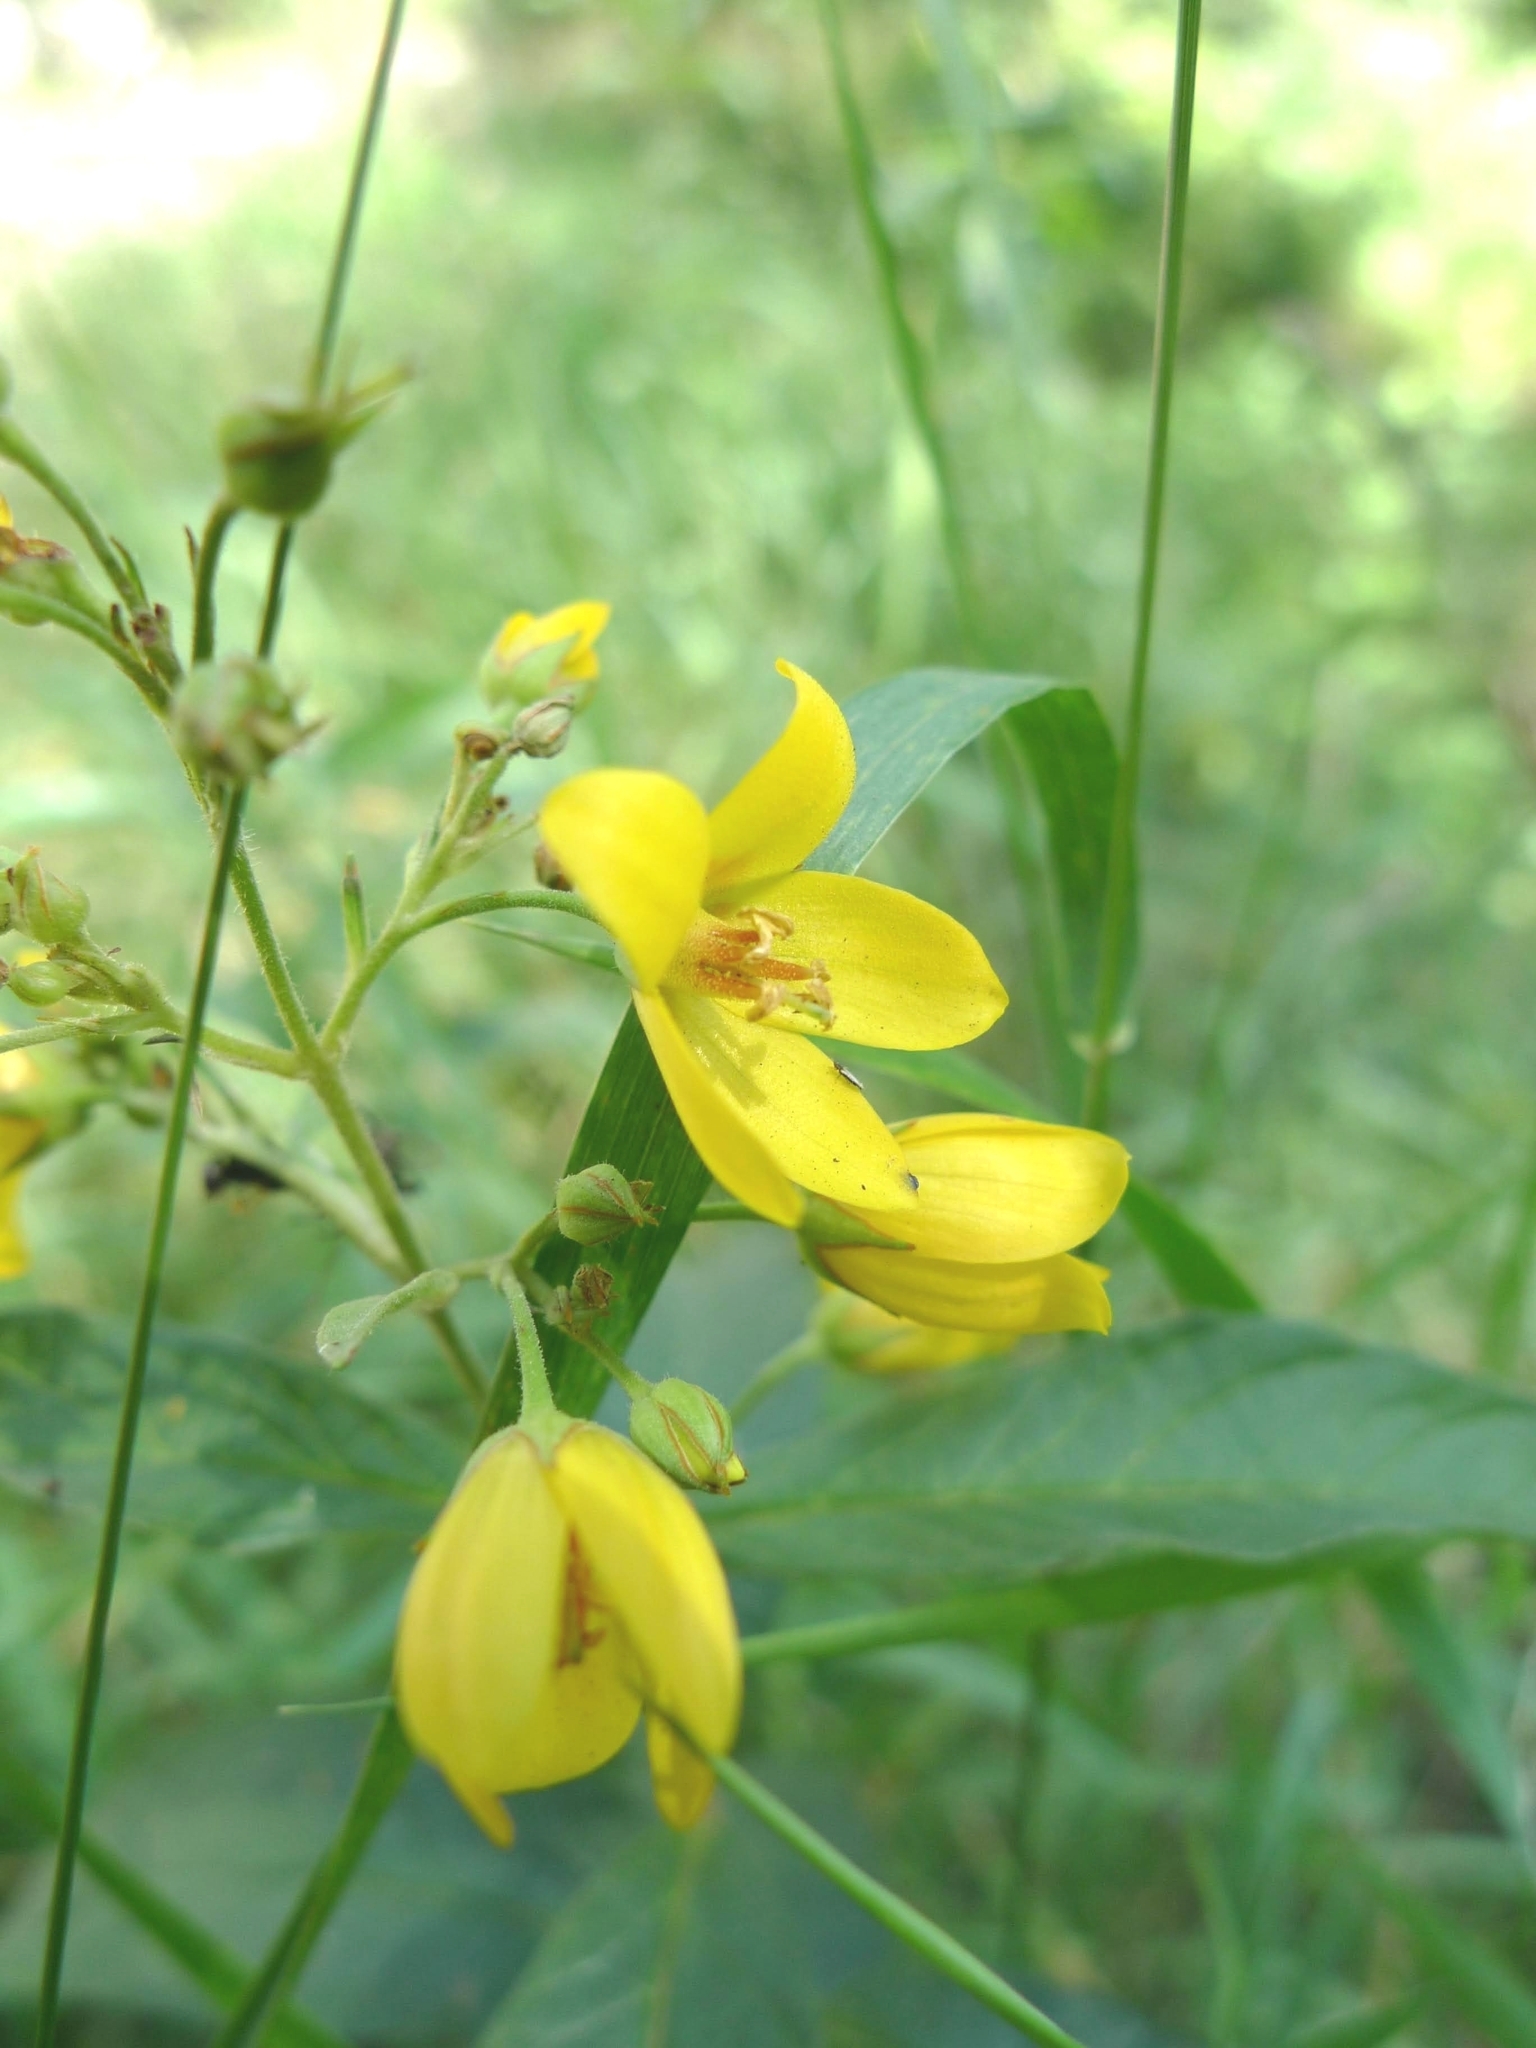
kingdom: Plantae
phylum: Tracheophyta
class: Magnoliopsida
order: Ericales
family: Primulaceae
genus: Lysimachia
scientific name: Lysimachia vulgaris
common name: Yellow loosestrife
